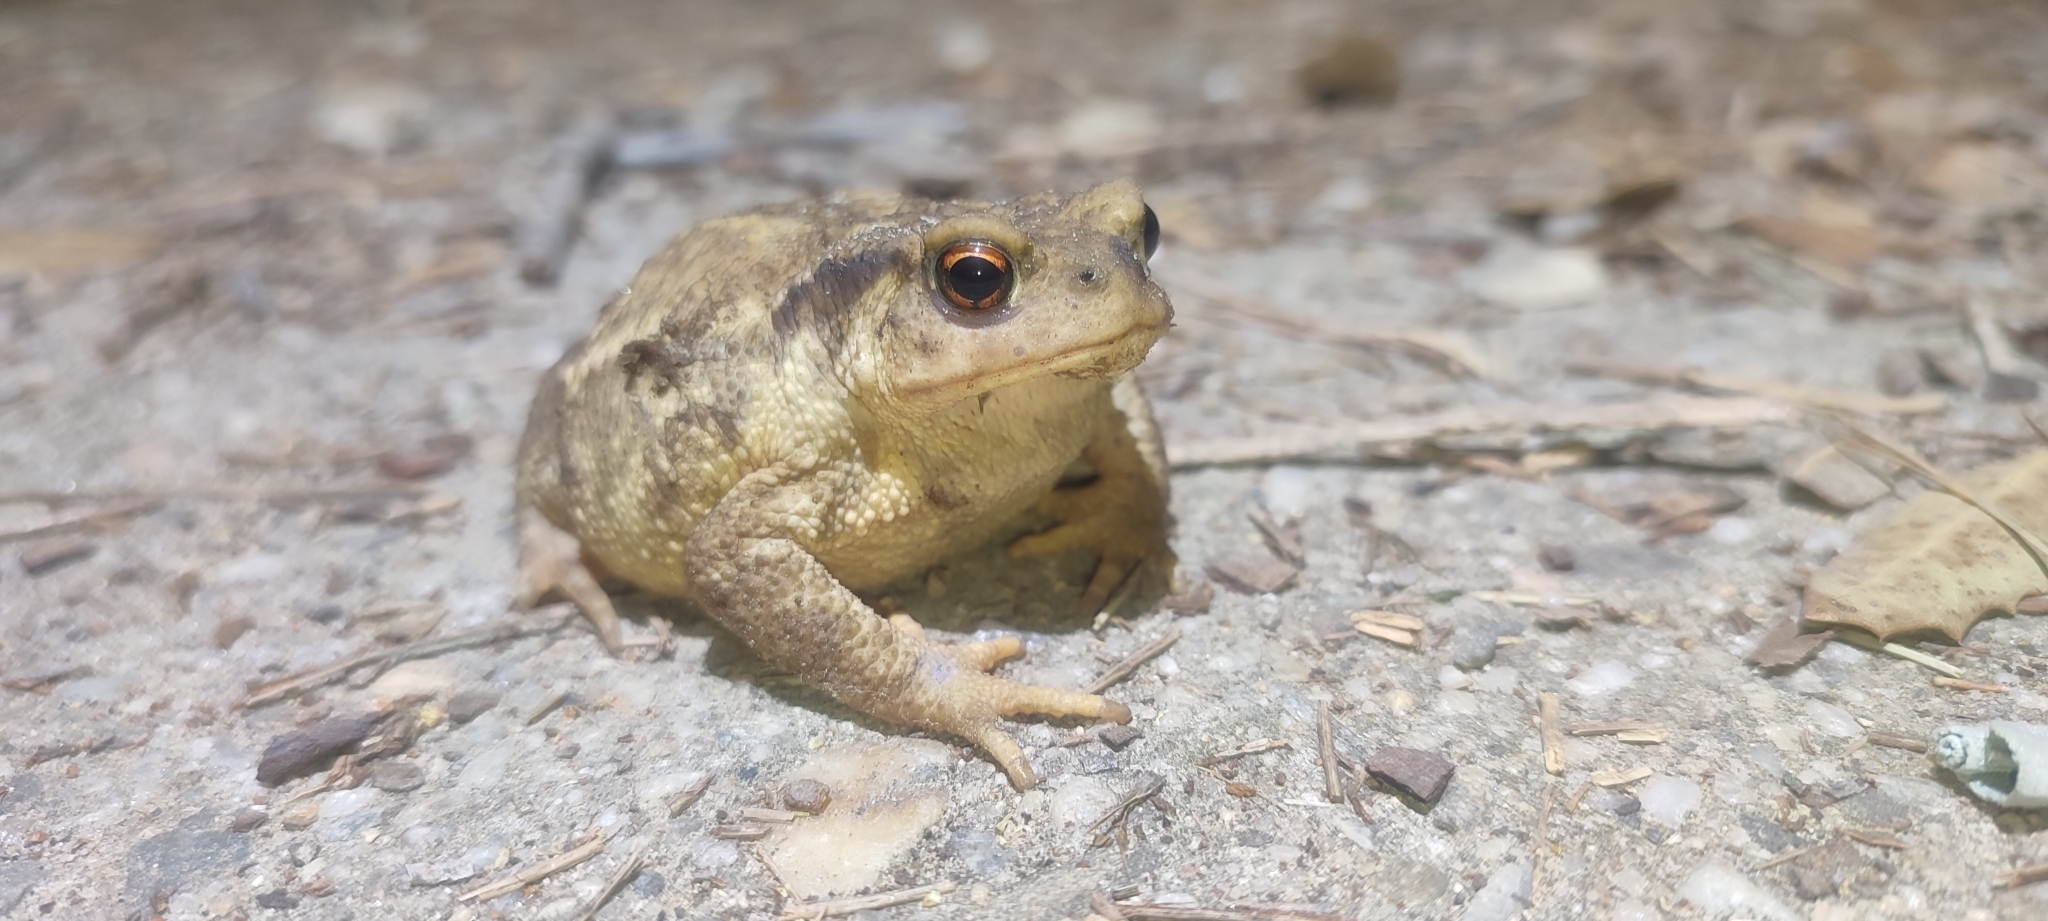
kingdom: Animalia
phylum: Chordata
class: Amphibia
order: Anura
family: Bufonidae
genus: Bufo
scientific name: Bufo spinosus
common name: Western common toad
